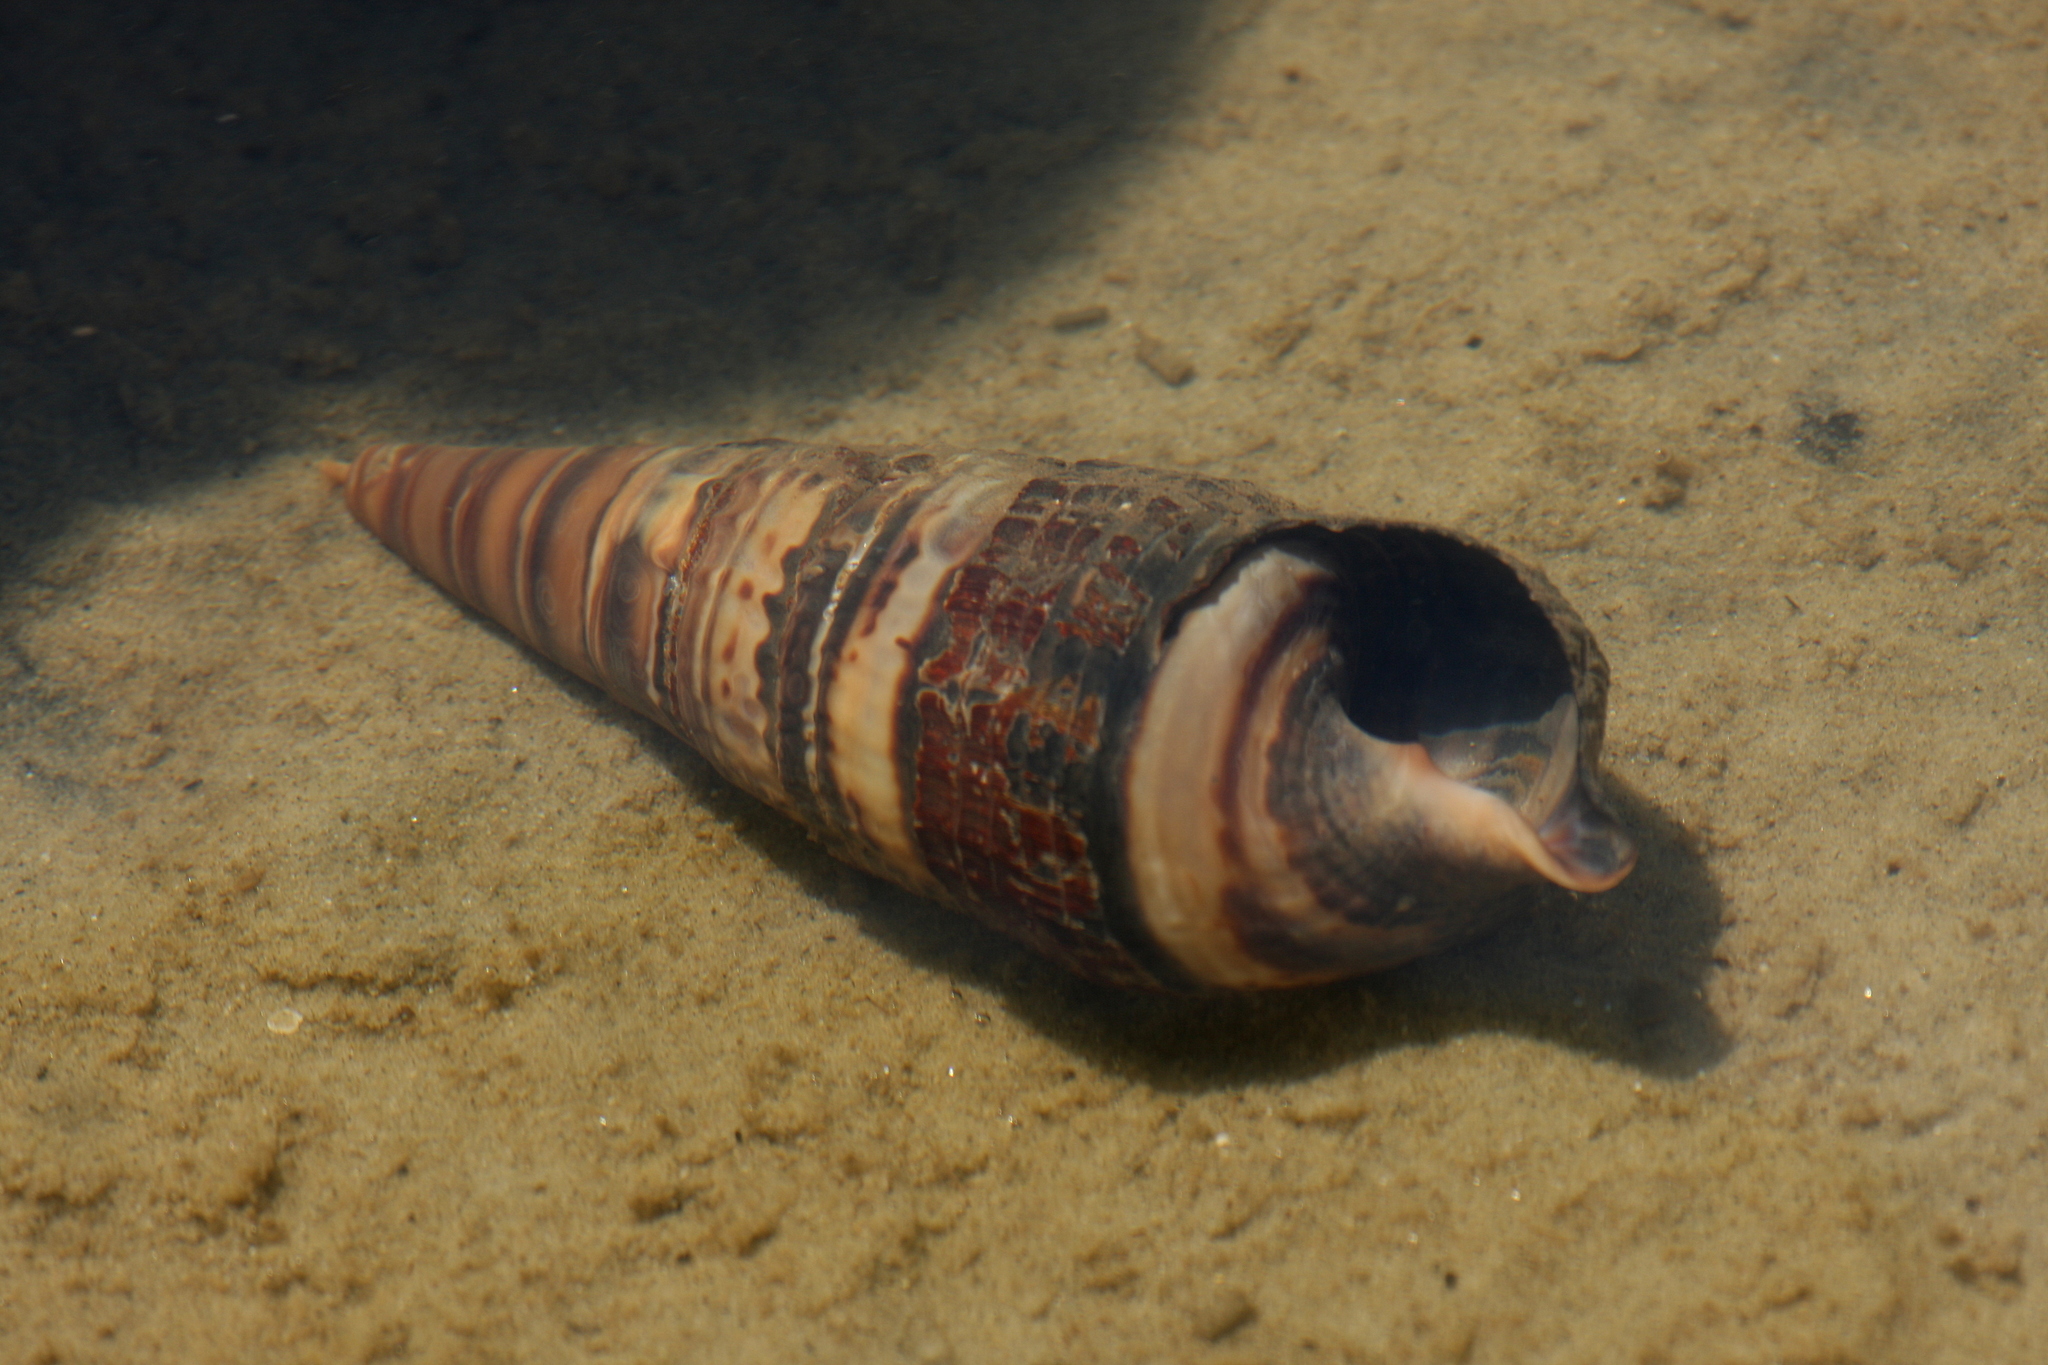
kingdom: Animalia
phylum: Mollusca
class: Gastropoda
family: Potamididae
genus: Terebralia
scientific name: Terebralia palustris
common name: Mangrove whelk
